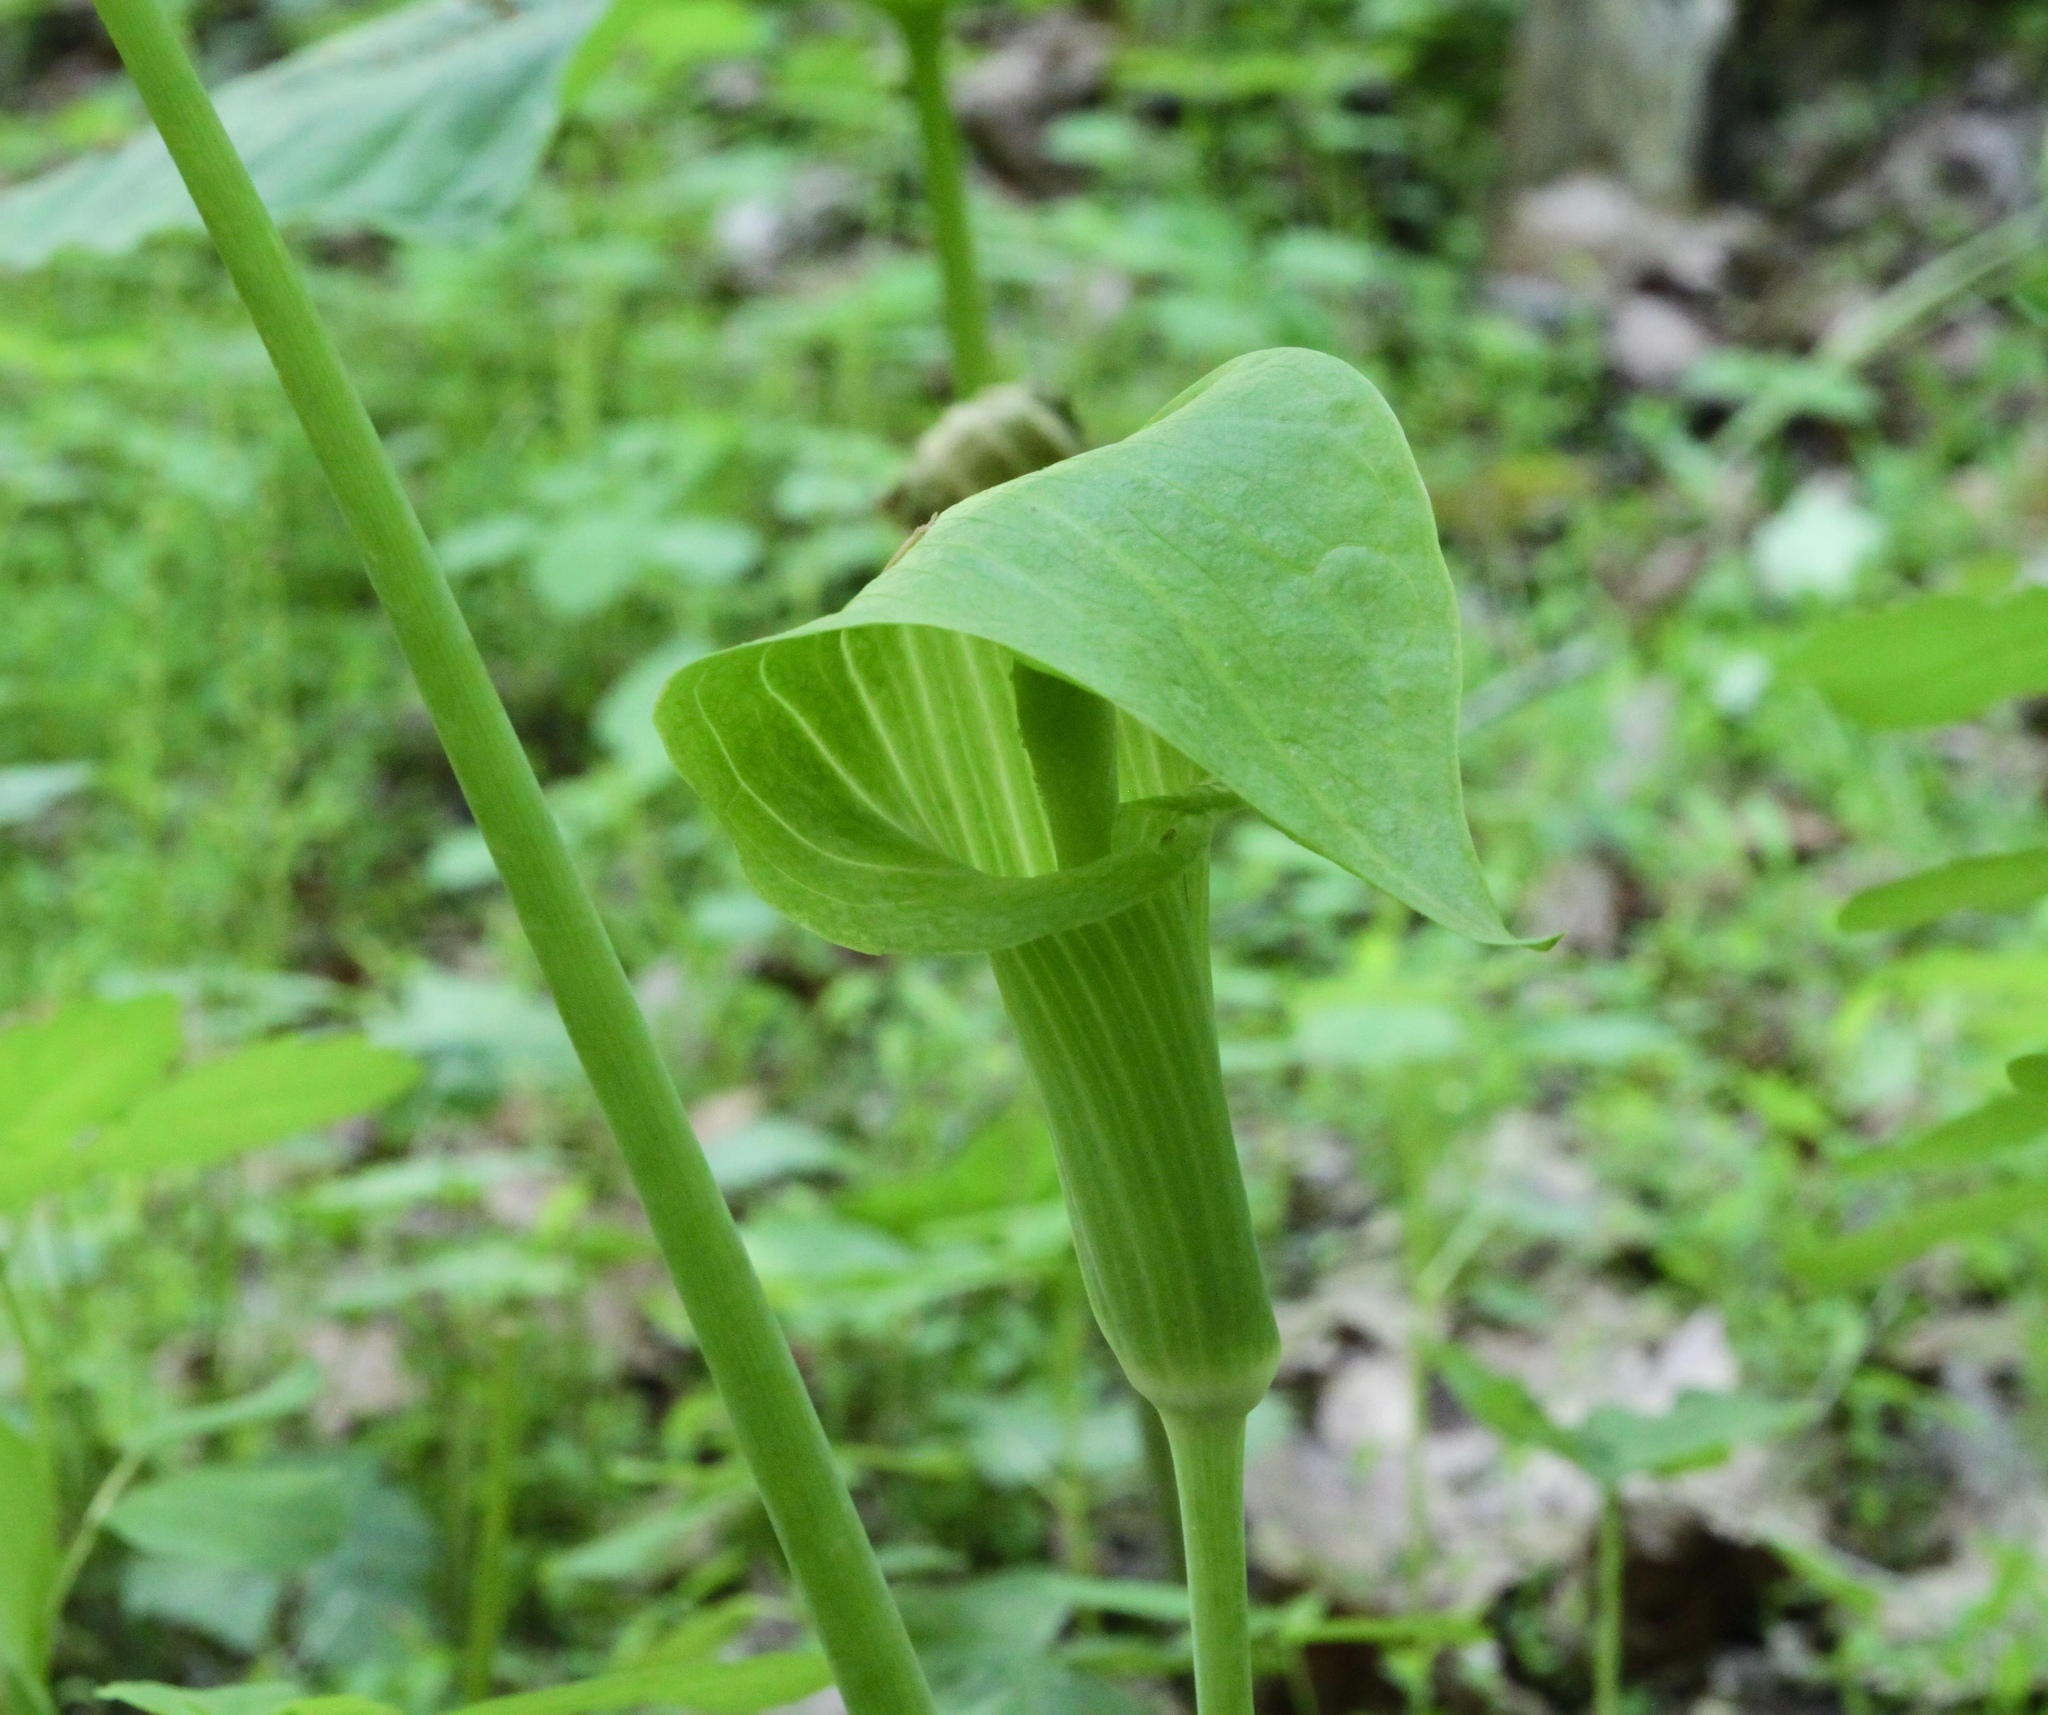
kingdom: Plantae
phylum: Tracheophyta
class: Liliopsida
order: Alismatales
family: Araceae
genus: Arisaema
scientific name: Arisaema triphyllum
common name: Jack-in-the-pulpit
